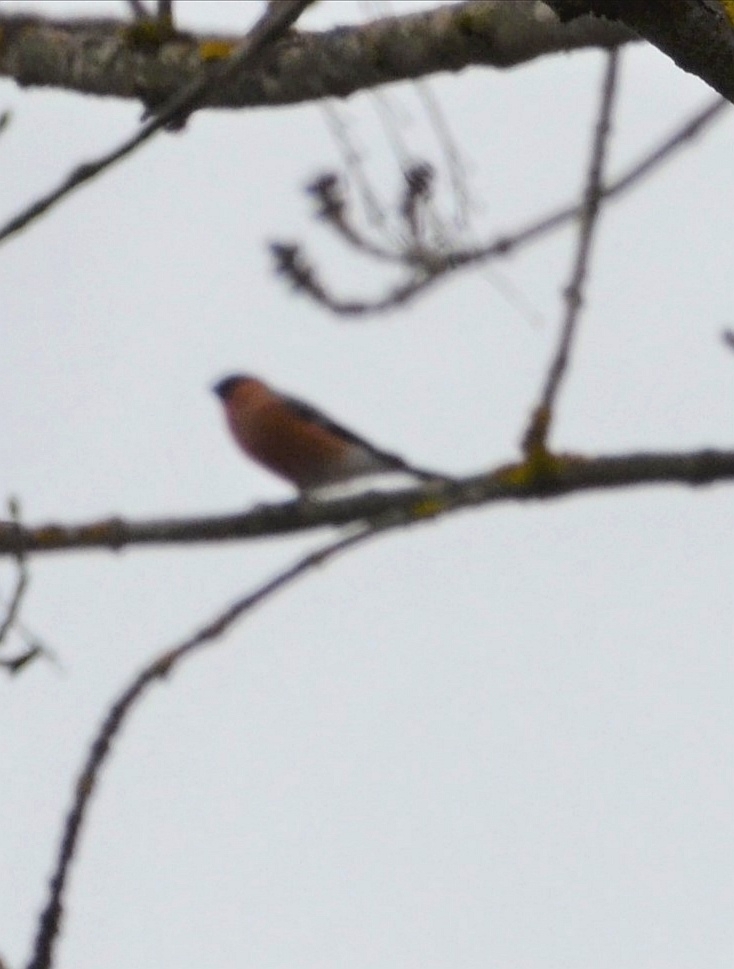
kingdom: Animalia
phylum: Chordata
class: Aves
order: Passeriformes
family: Fringillidae
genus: Pyrrhula
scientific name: Pyrrhula pyrrhula
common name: Eurasian bullfinch
